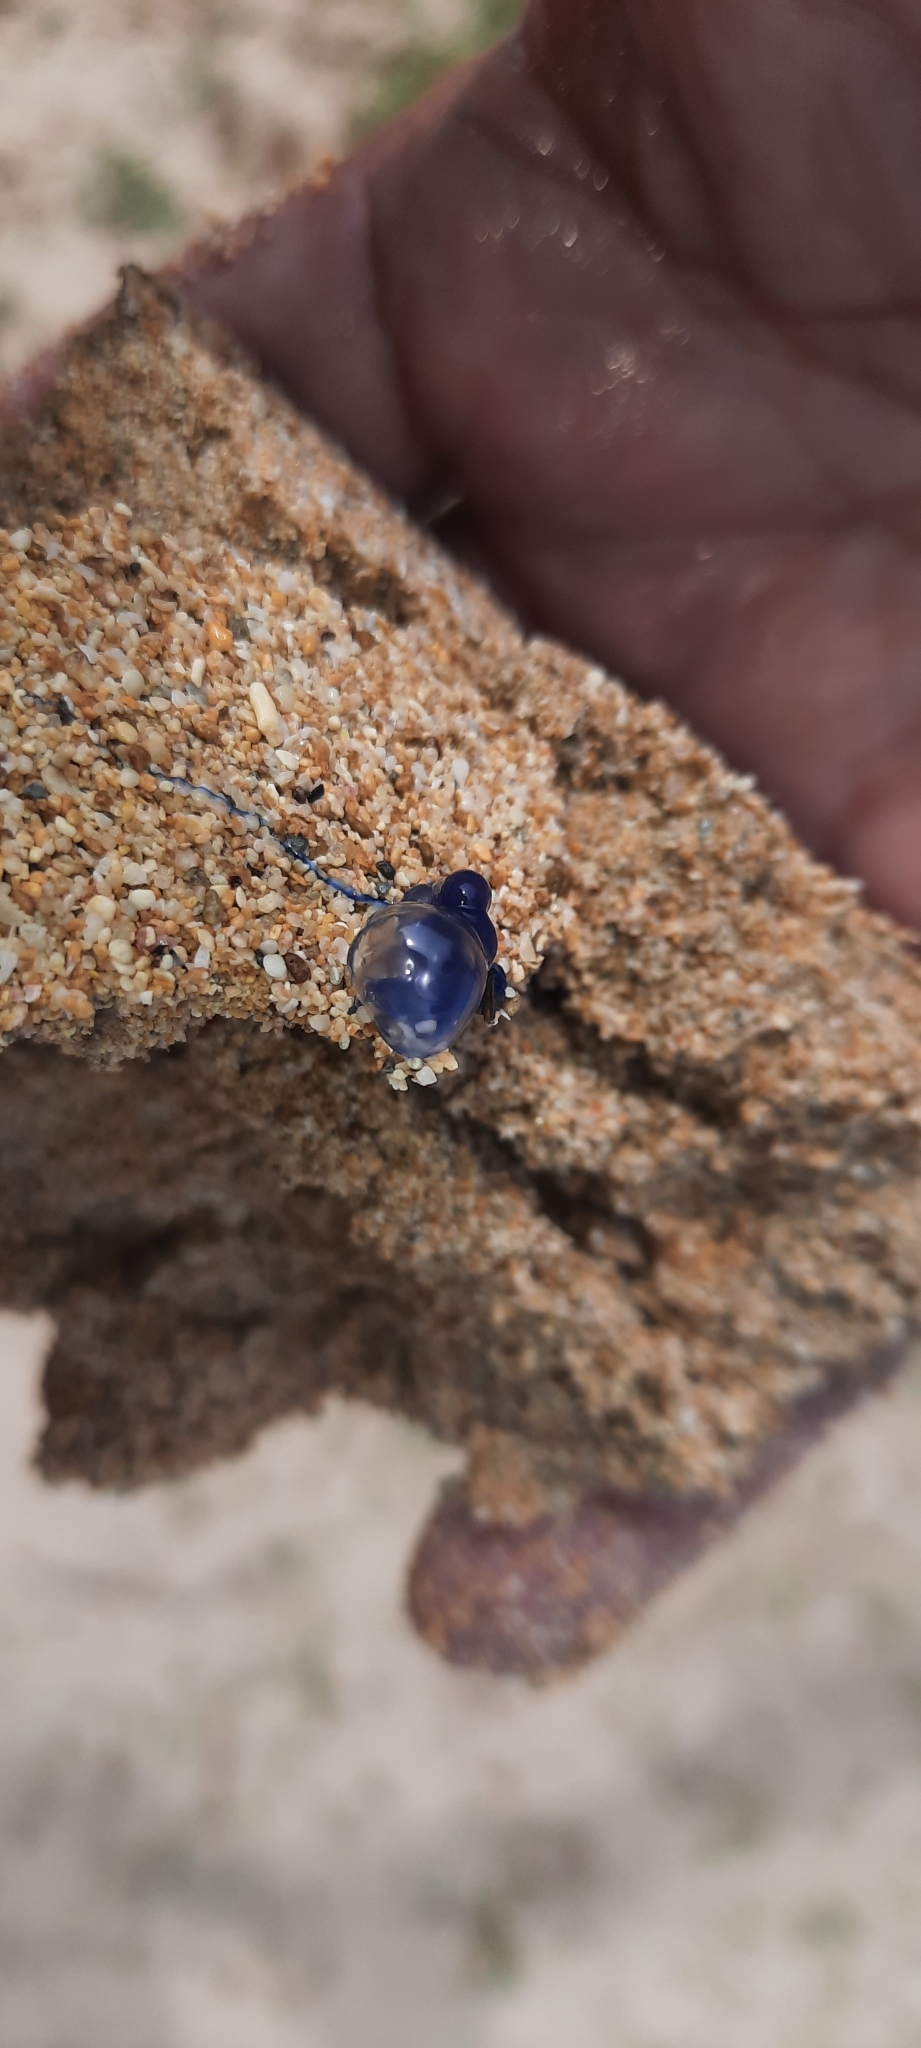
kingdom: Animalia
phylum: Cnidaria
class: Hydrozoa
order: Siphonophorae
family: Physaliidae
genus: Physalia
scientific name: Physalia physalis
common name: Portuguese man-of-war
